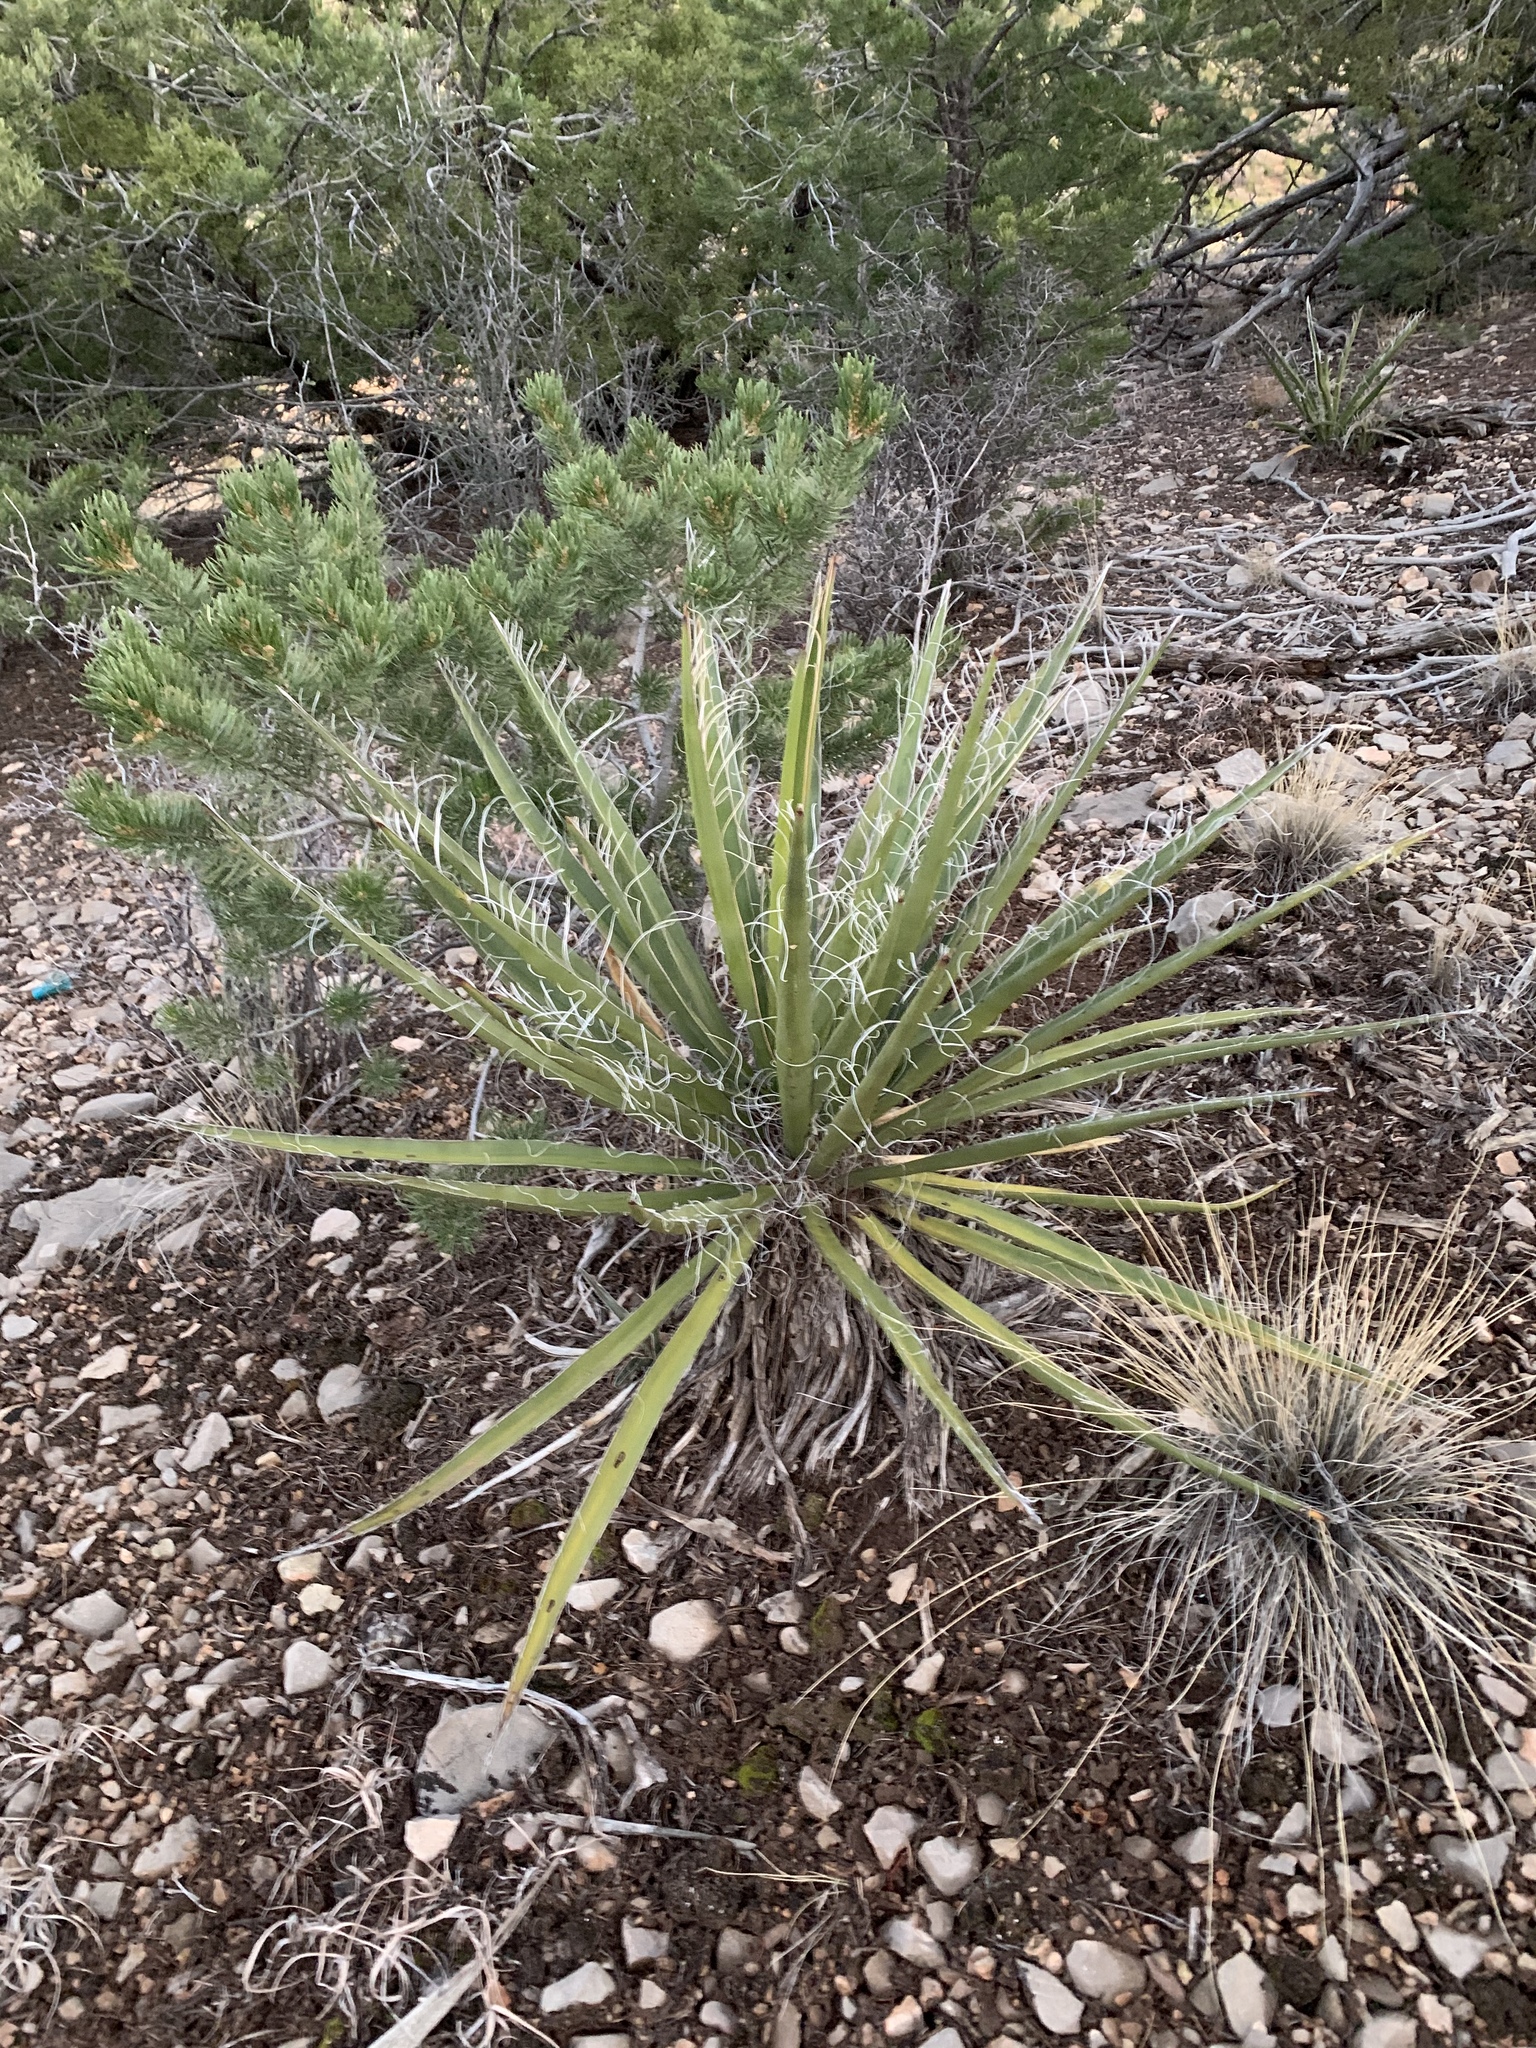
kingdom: Plantae
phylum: Tracheophyta
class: Liliopsida
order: Asparagales
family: Asparagaceae
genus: Yucca
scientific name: Yucca baccata
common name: Banana yucca
